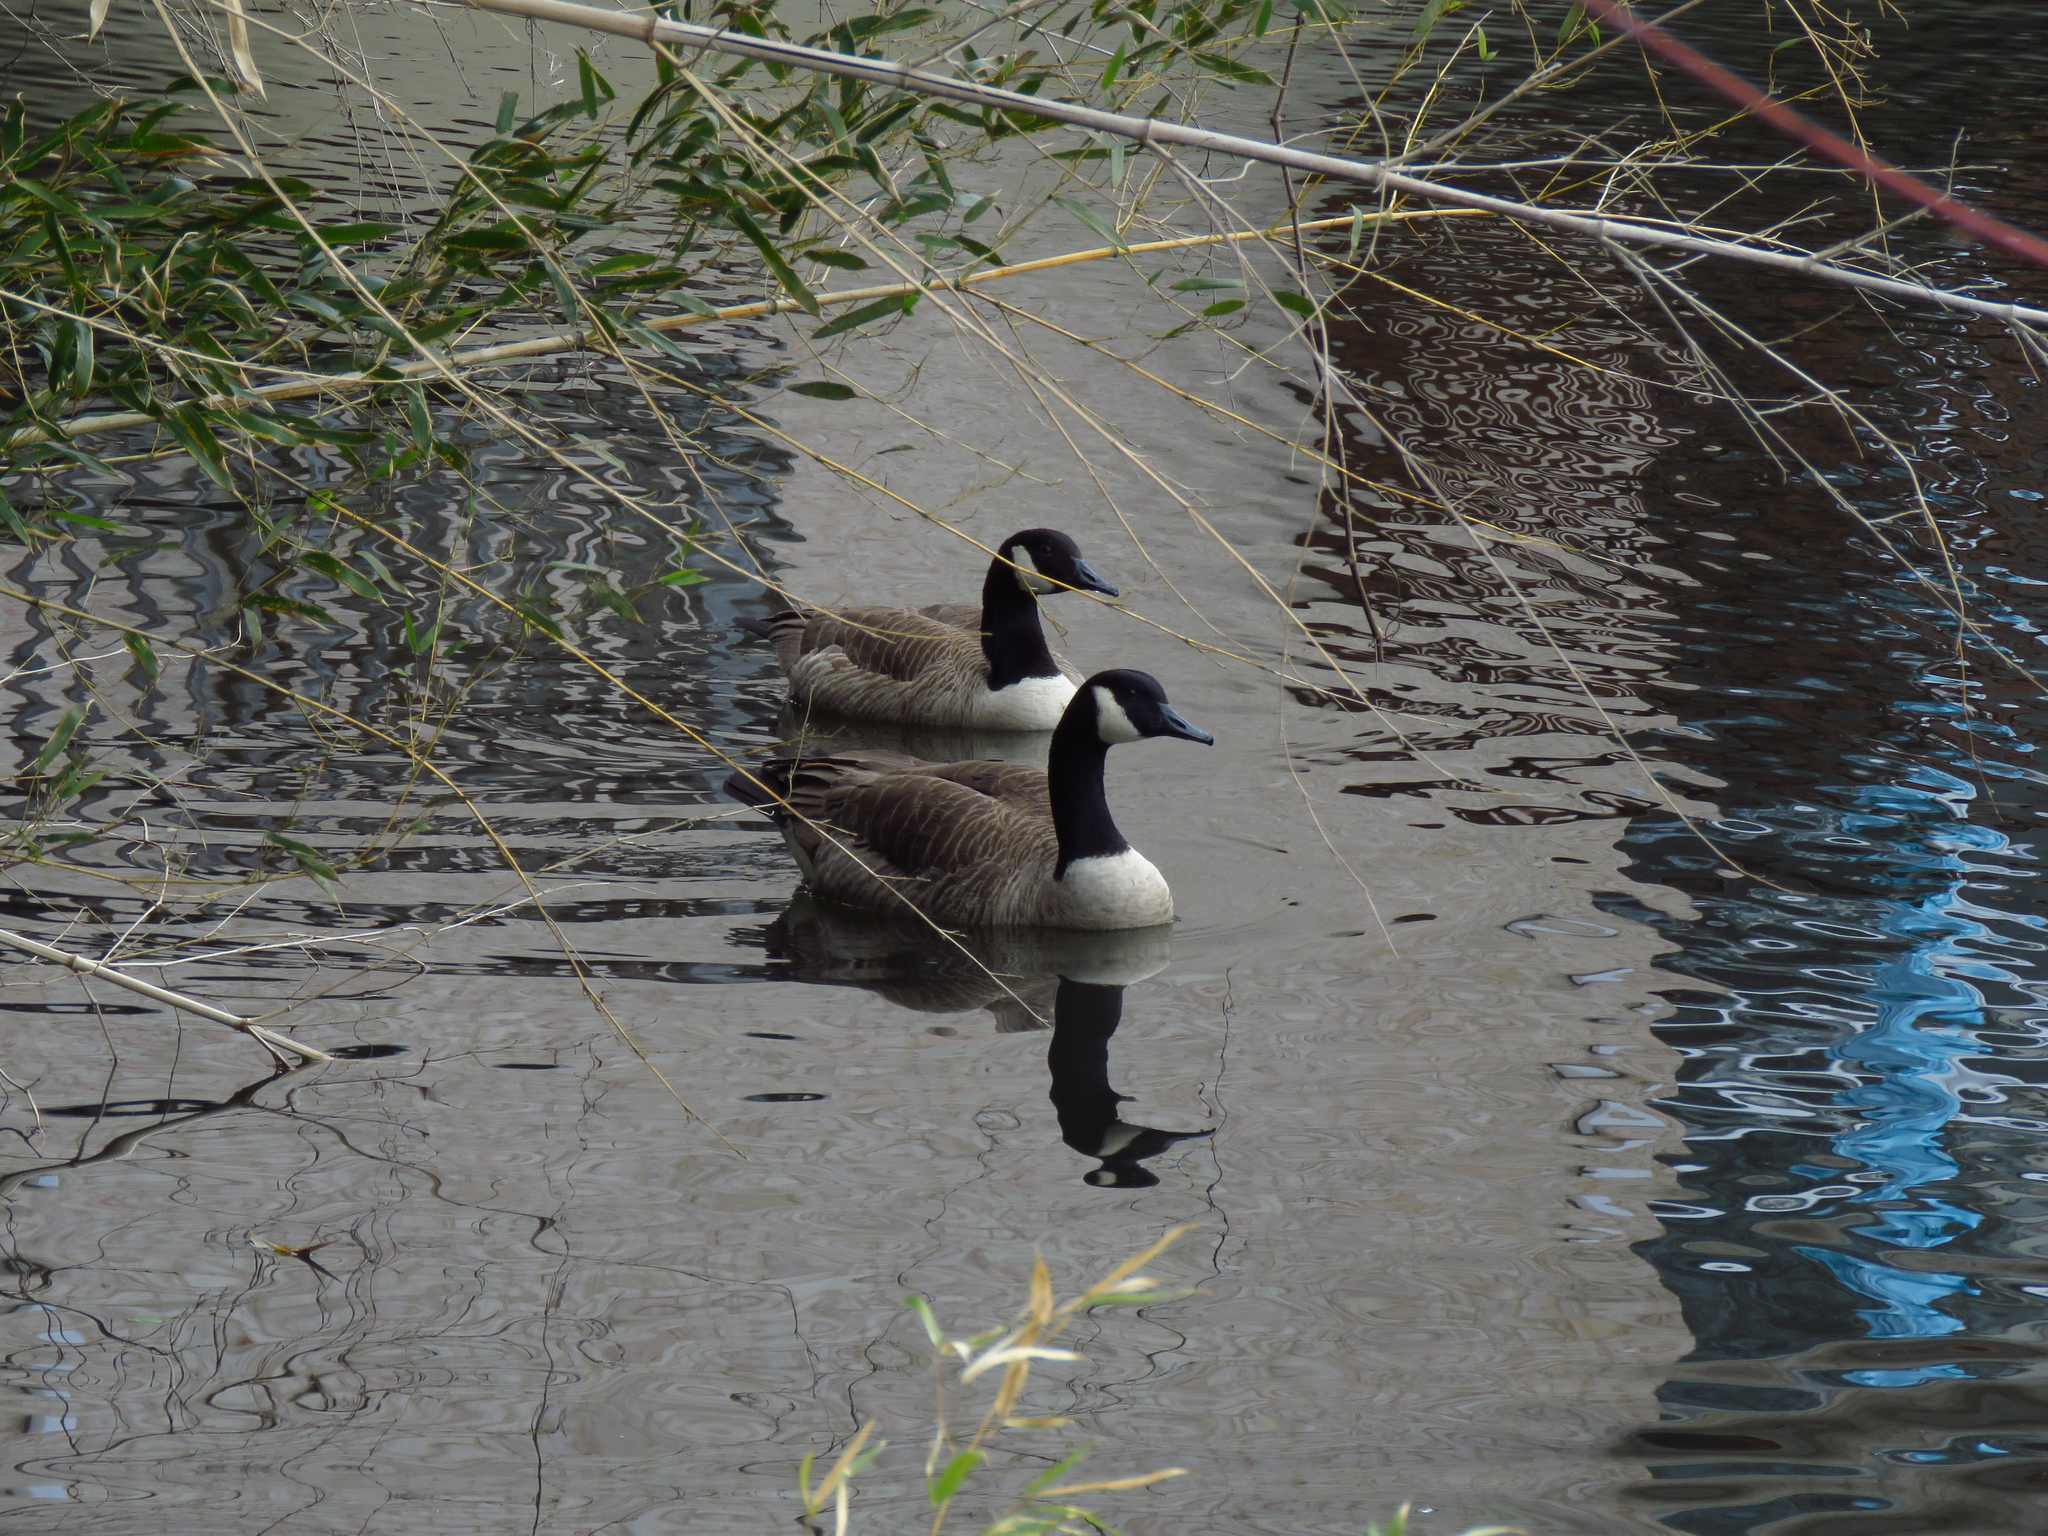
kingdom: Animalia
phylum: Chordata
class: Aves
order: Anseriformes
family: Anatidae
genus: Branta
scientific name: Branta canadensis
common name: Canada goose
